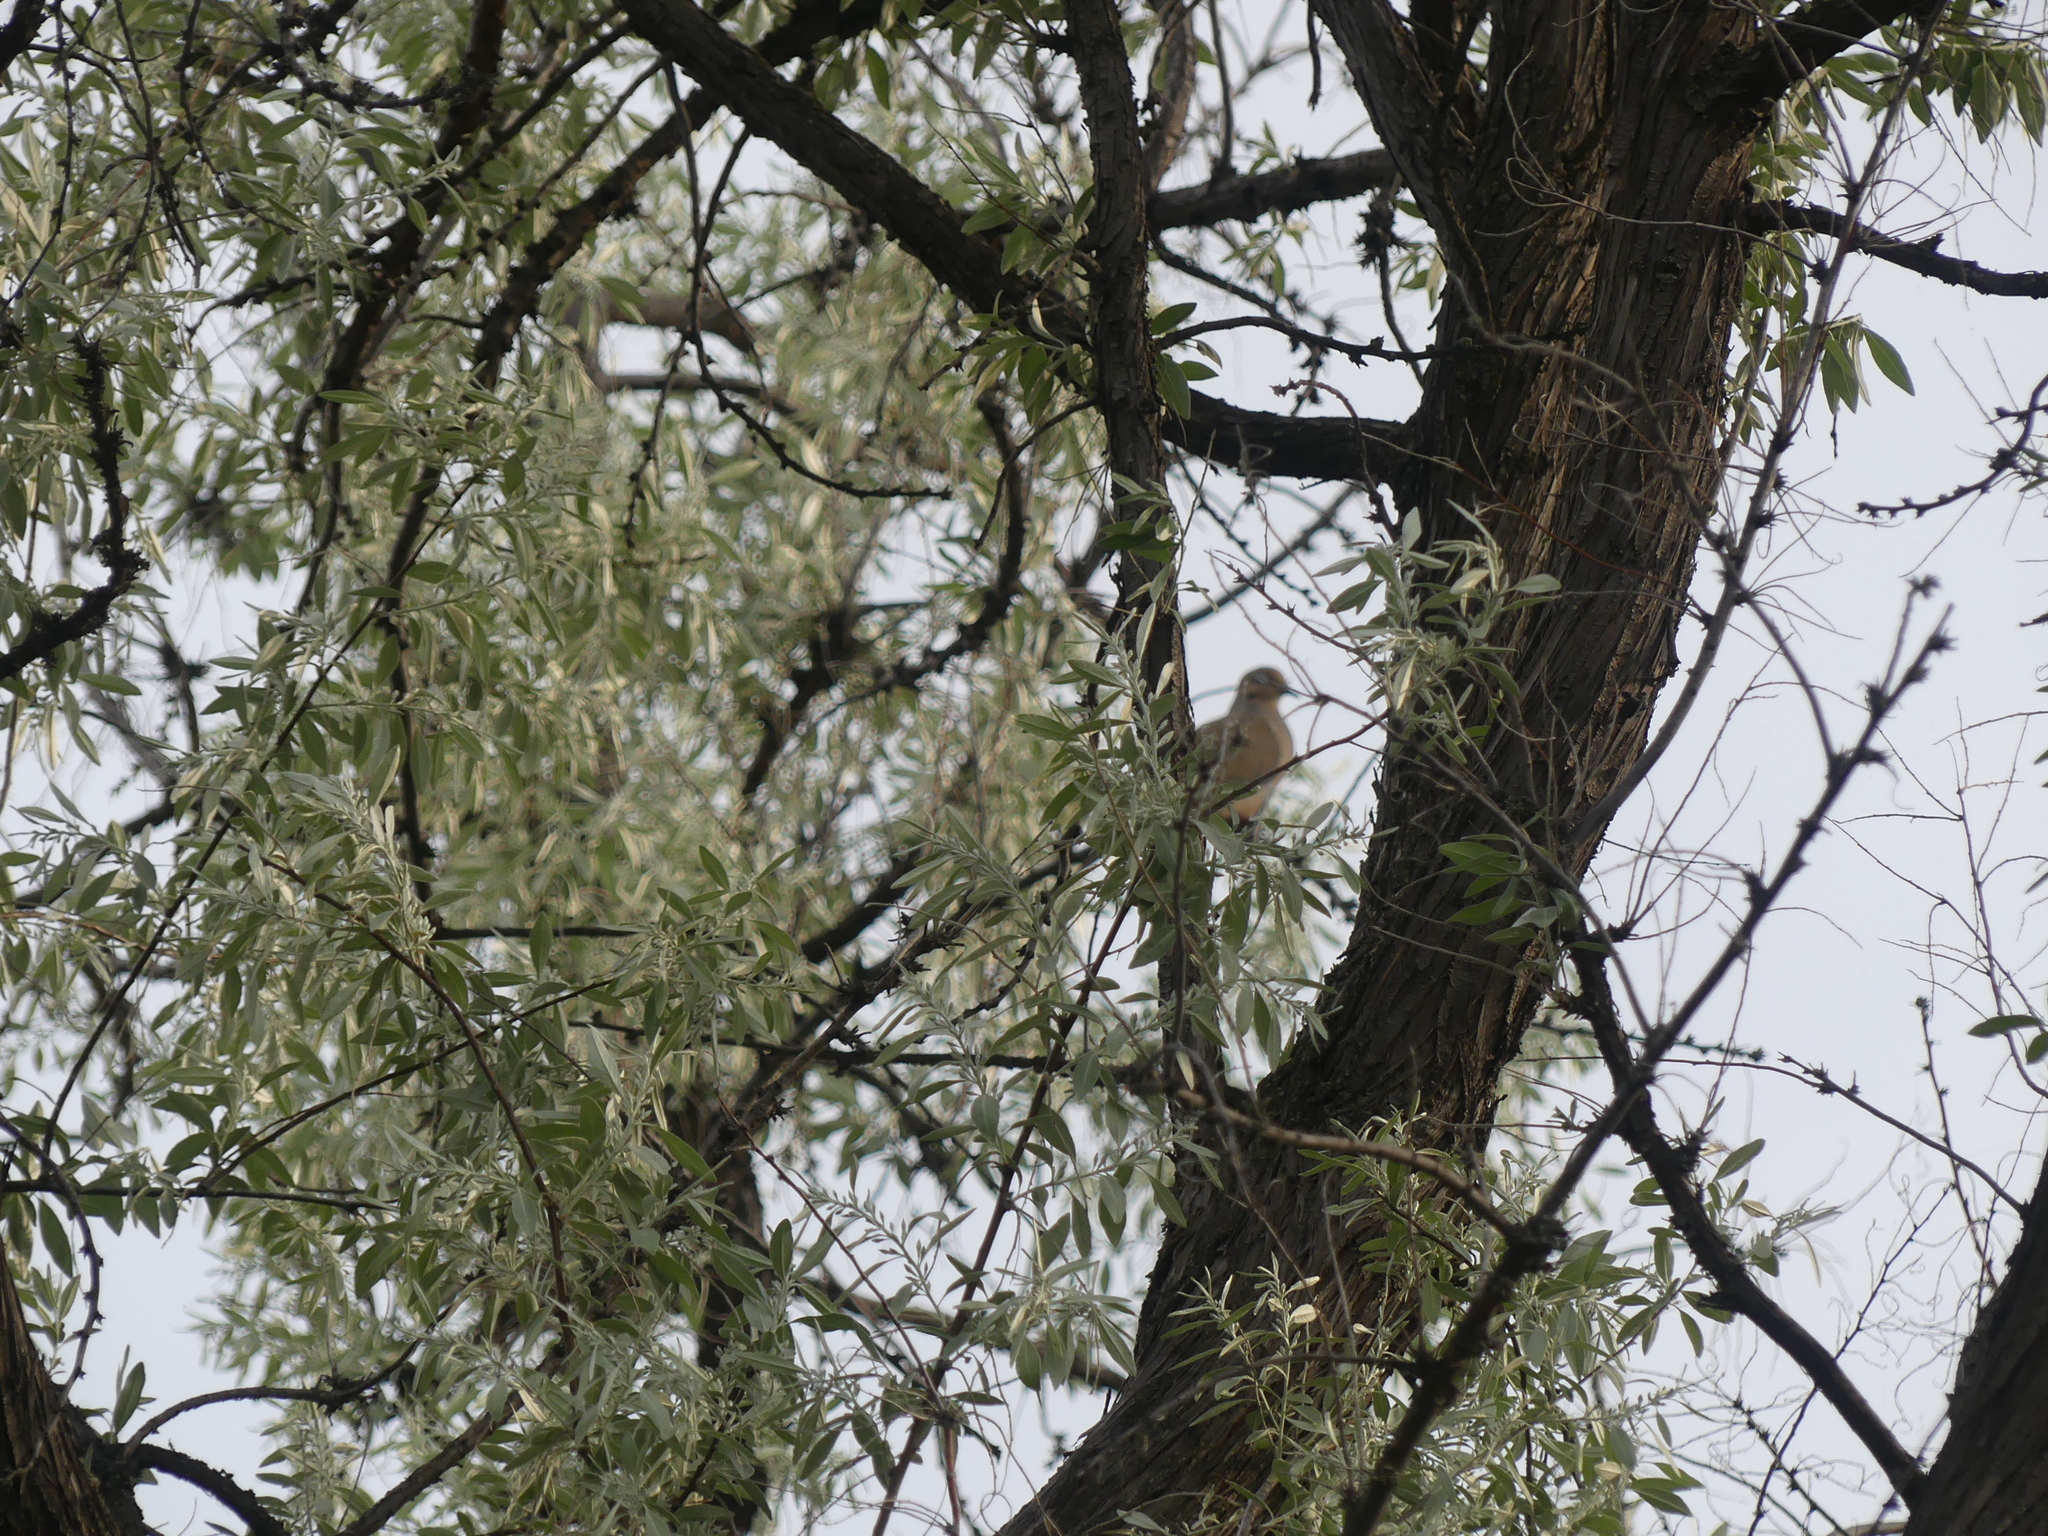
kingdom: Animalia
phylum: Chordata
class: Aves
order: Columbiformes
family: Columbidae
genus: Streptopelia
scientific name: Streptopelia decaocto
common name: Eurasian collared dove
